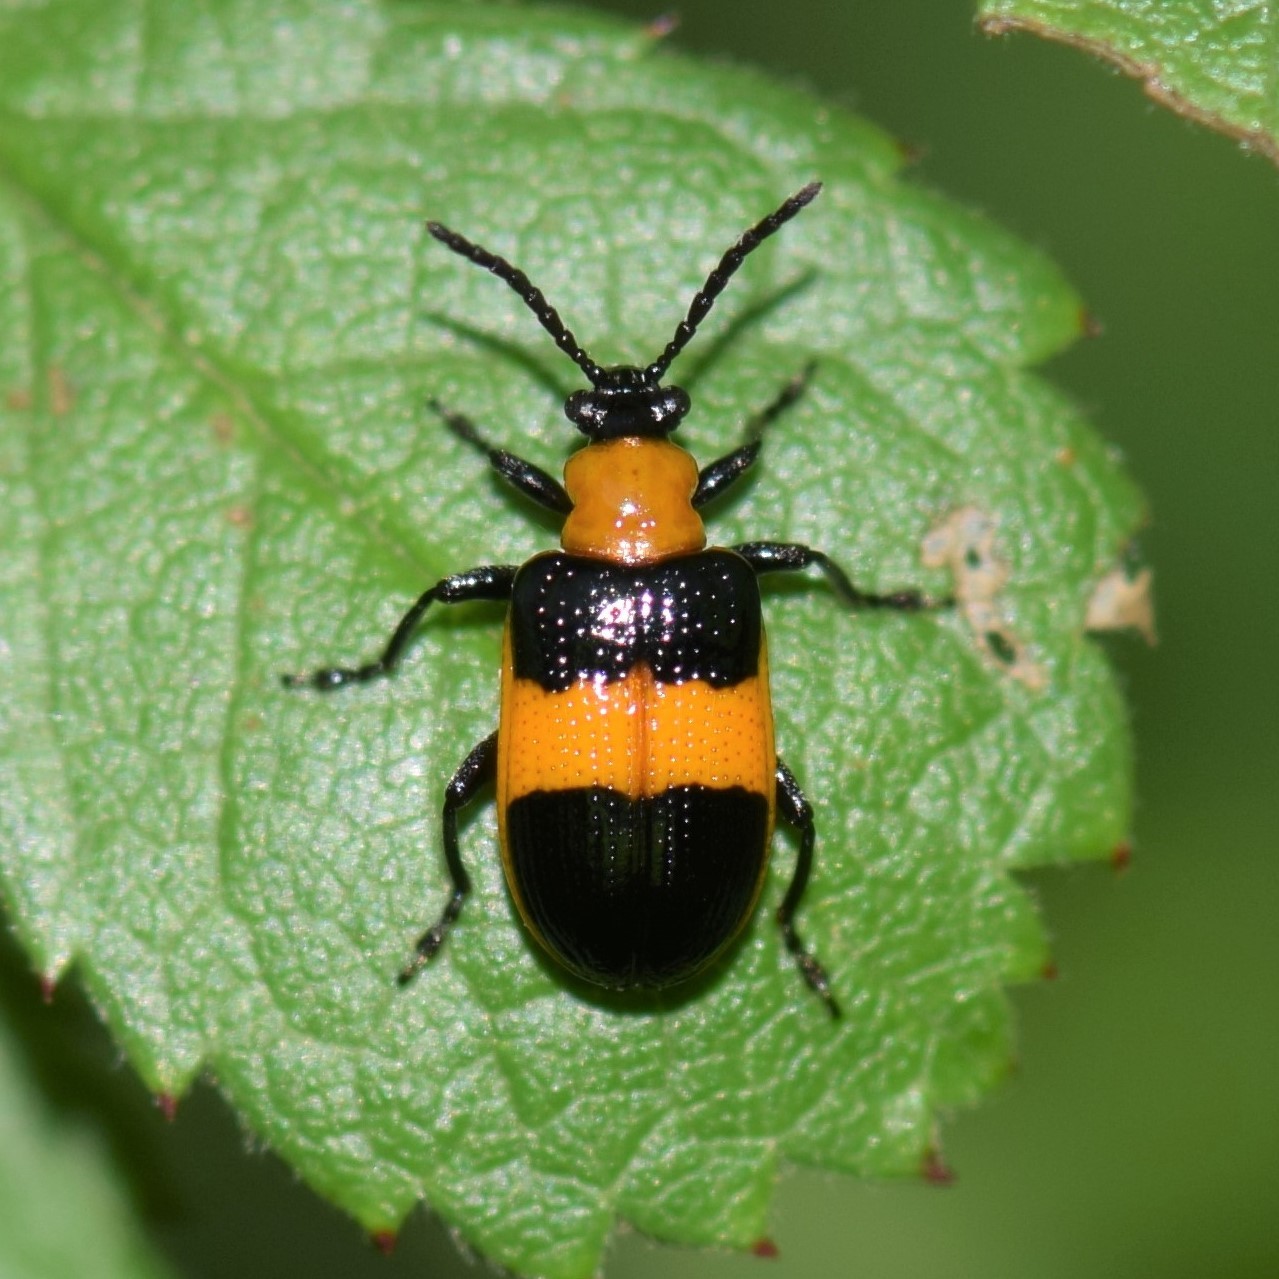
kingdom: Animalia
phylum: Arthropoda
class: Insecta
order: Coleoptera
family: Chrysomelidae
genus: Lema
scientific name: Lema solani
